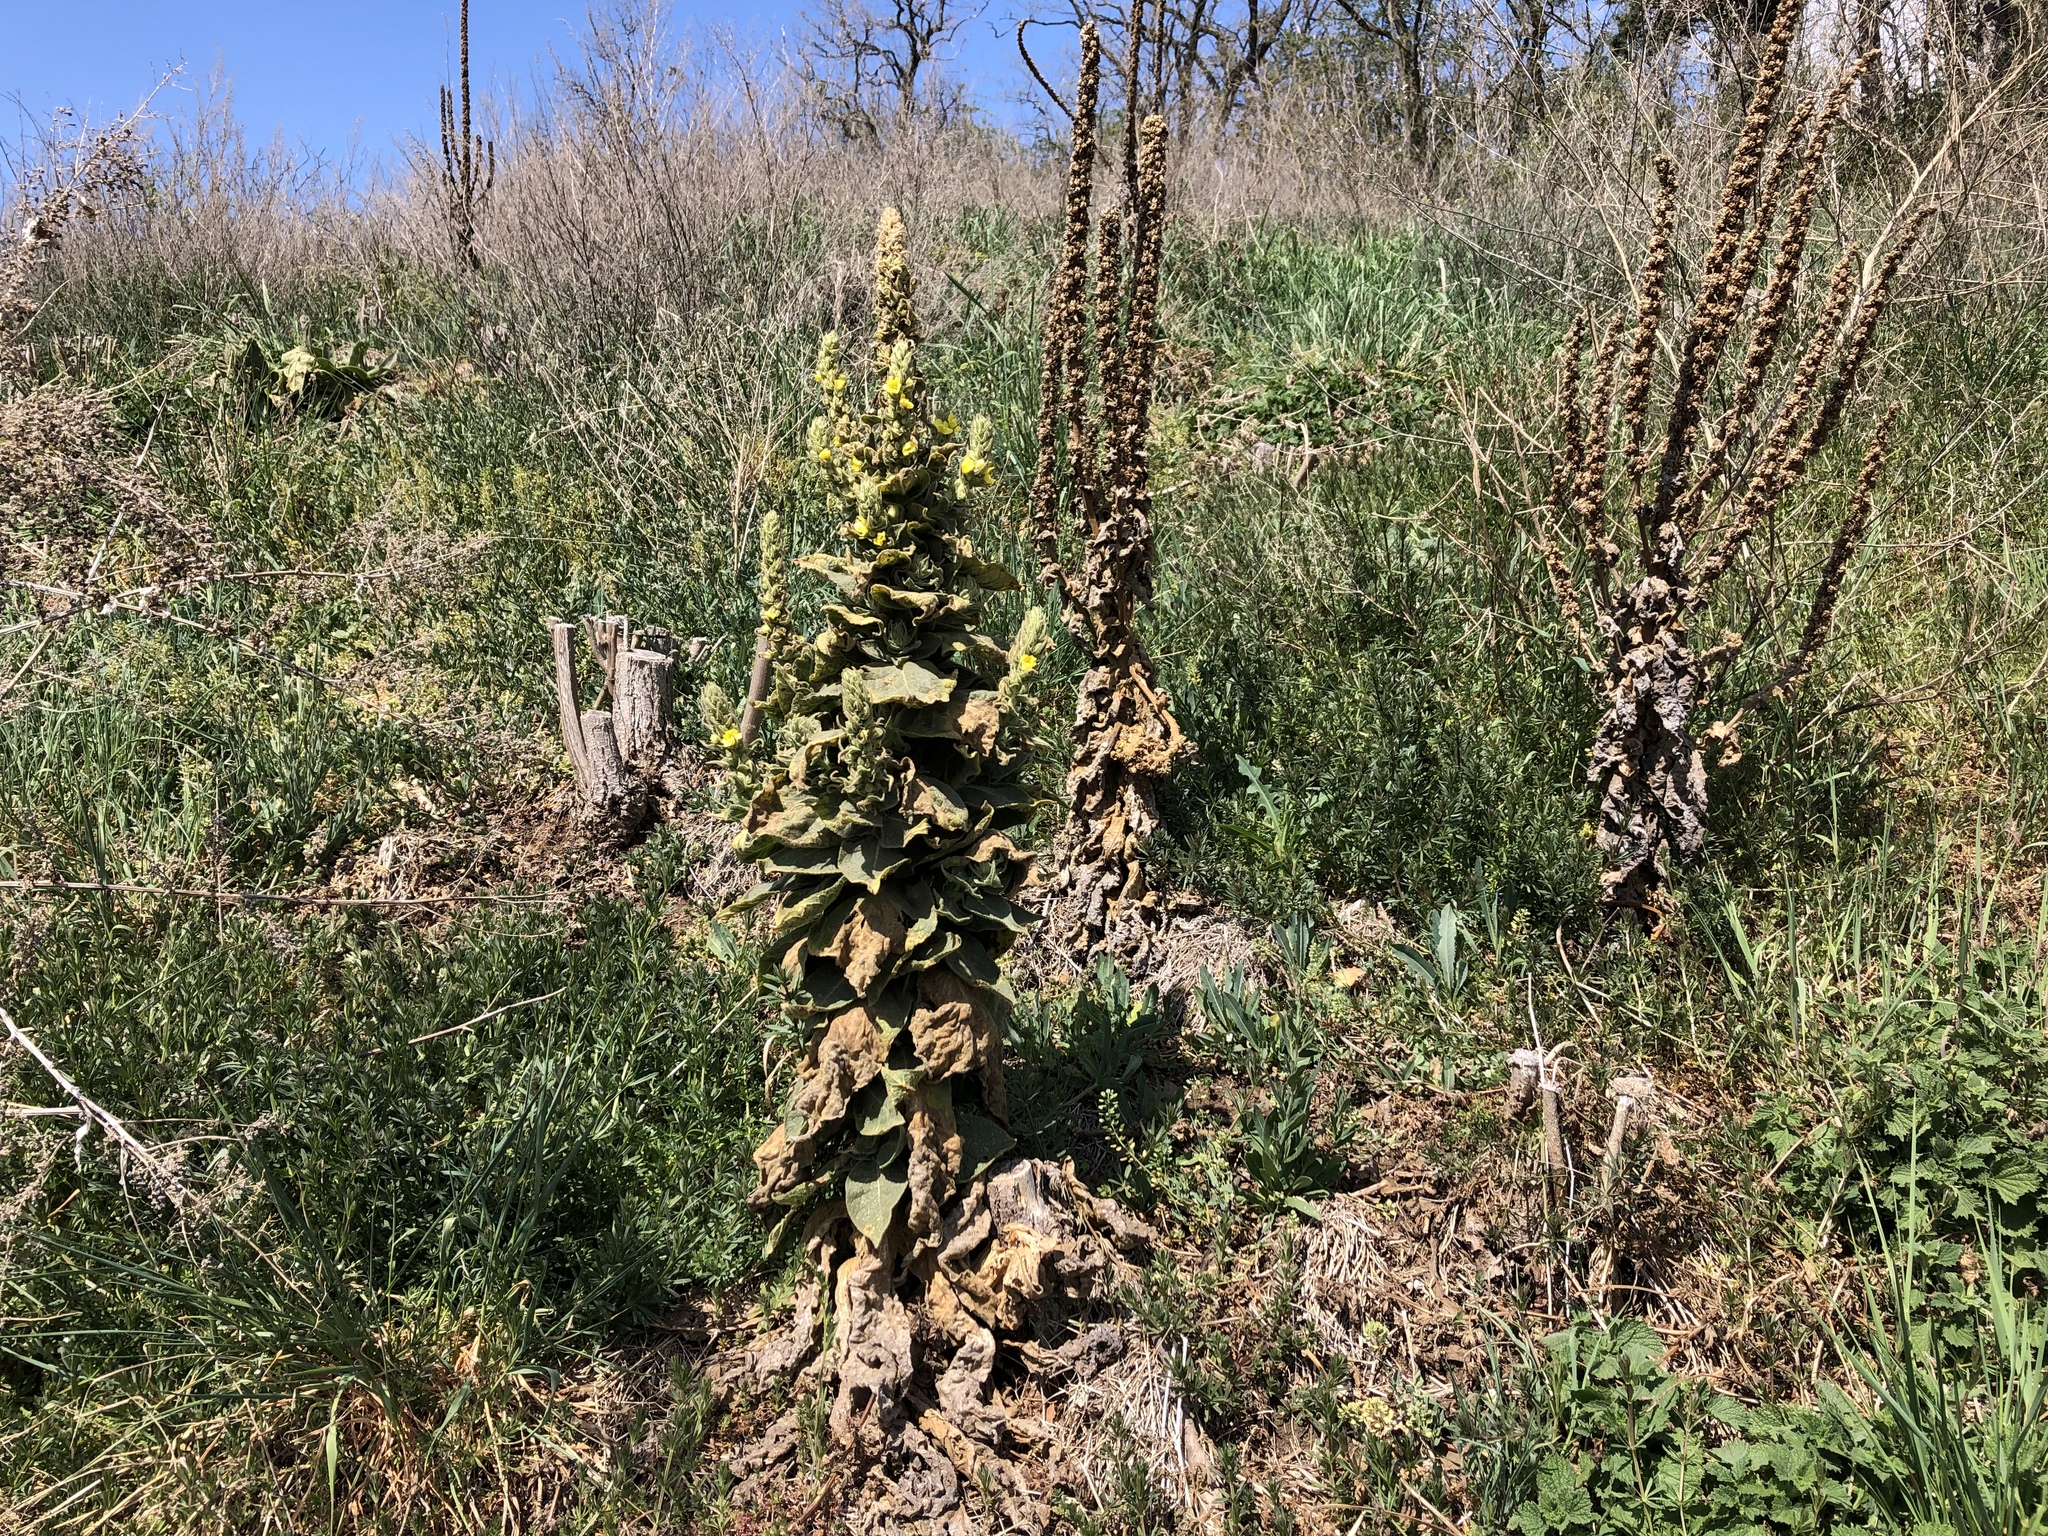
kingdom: Plantae
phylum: Tracheophyta
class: Magnoliopsida
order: Lamiales
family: Scrophulariaceae
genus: Verbascum
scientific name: Verbascum densiflorum
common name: Dense-flowered mullein
